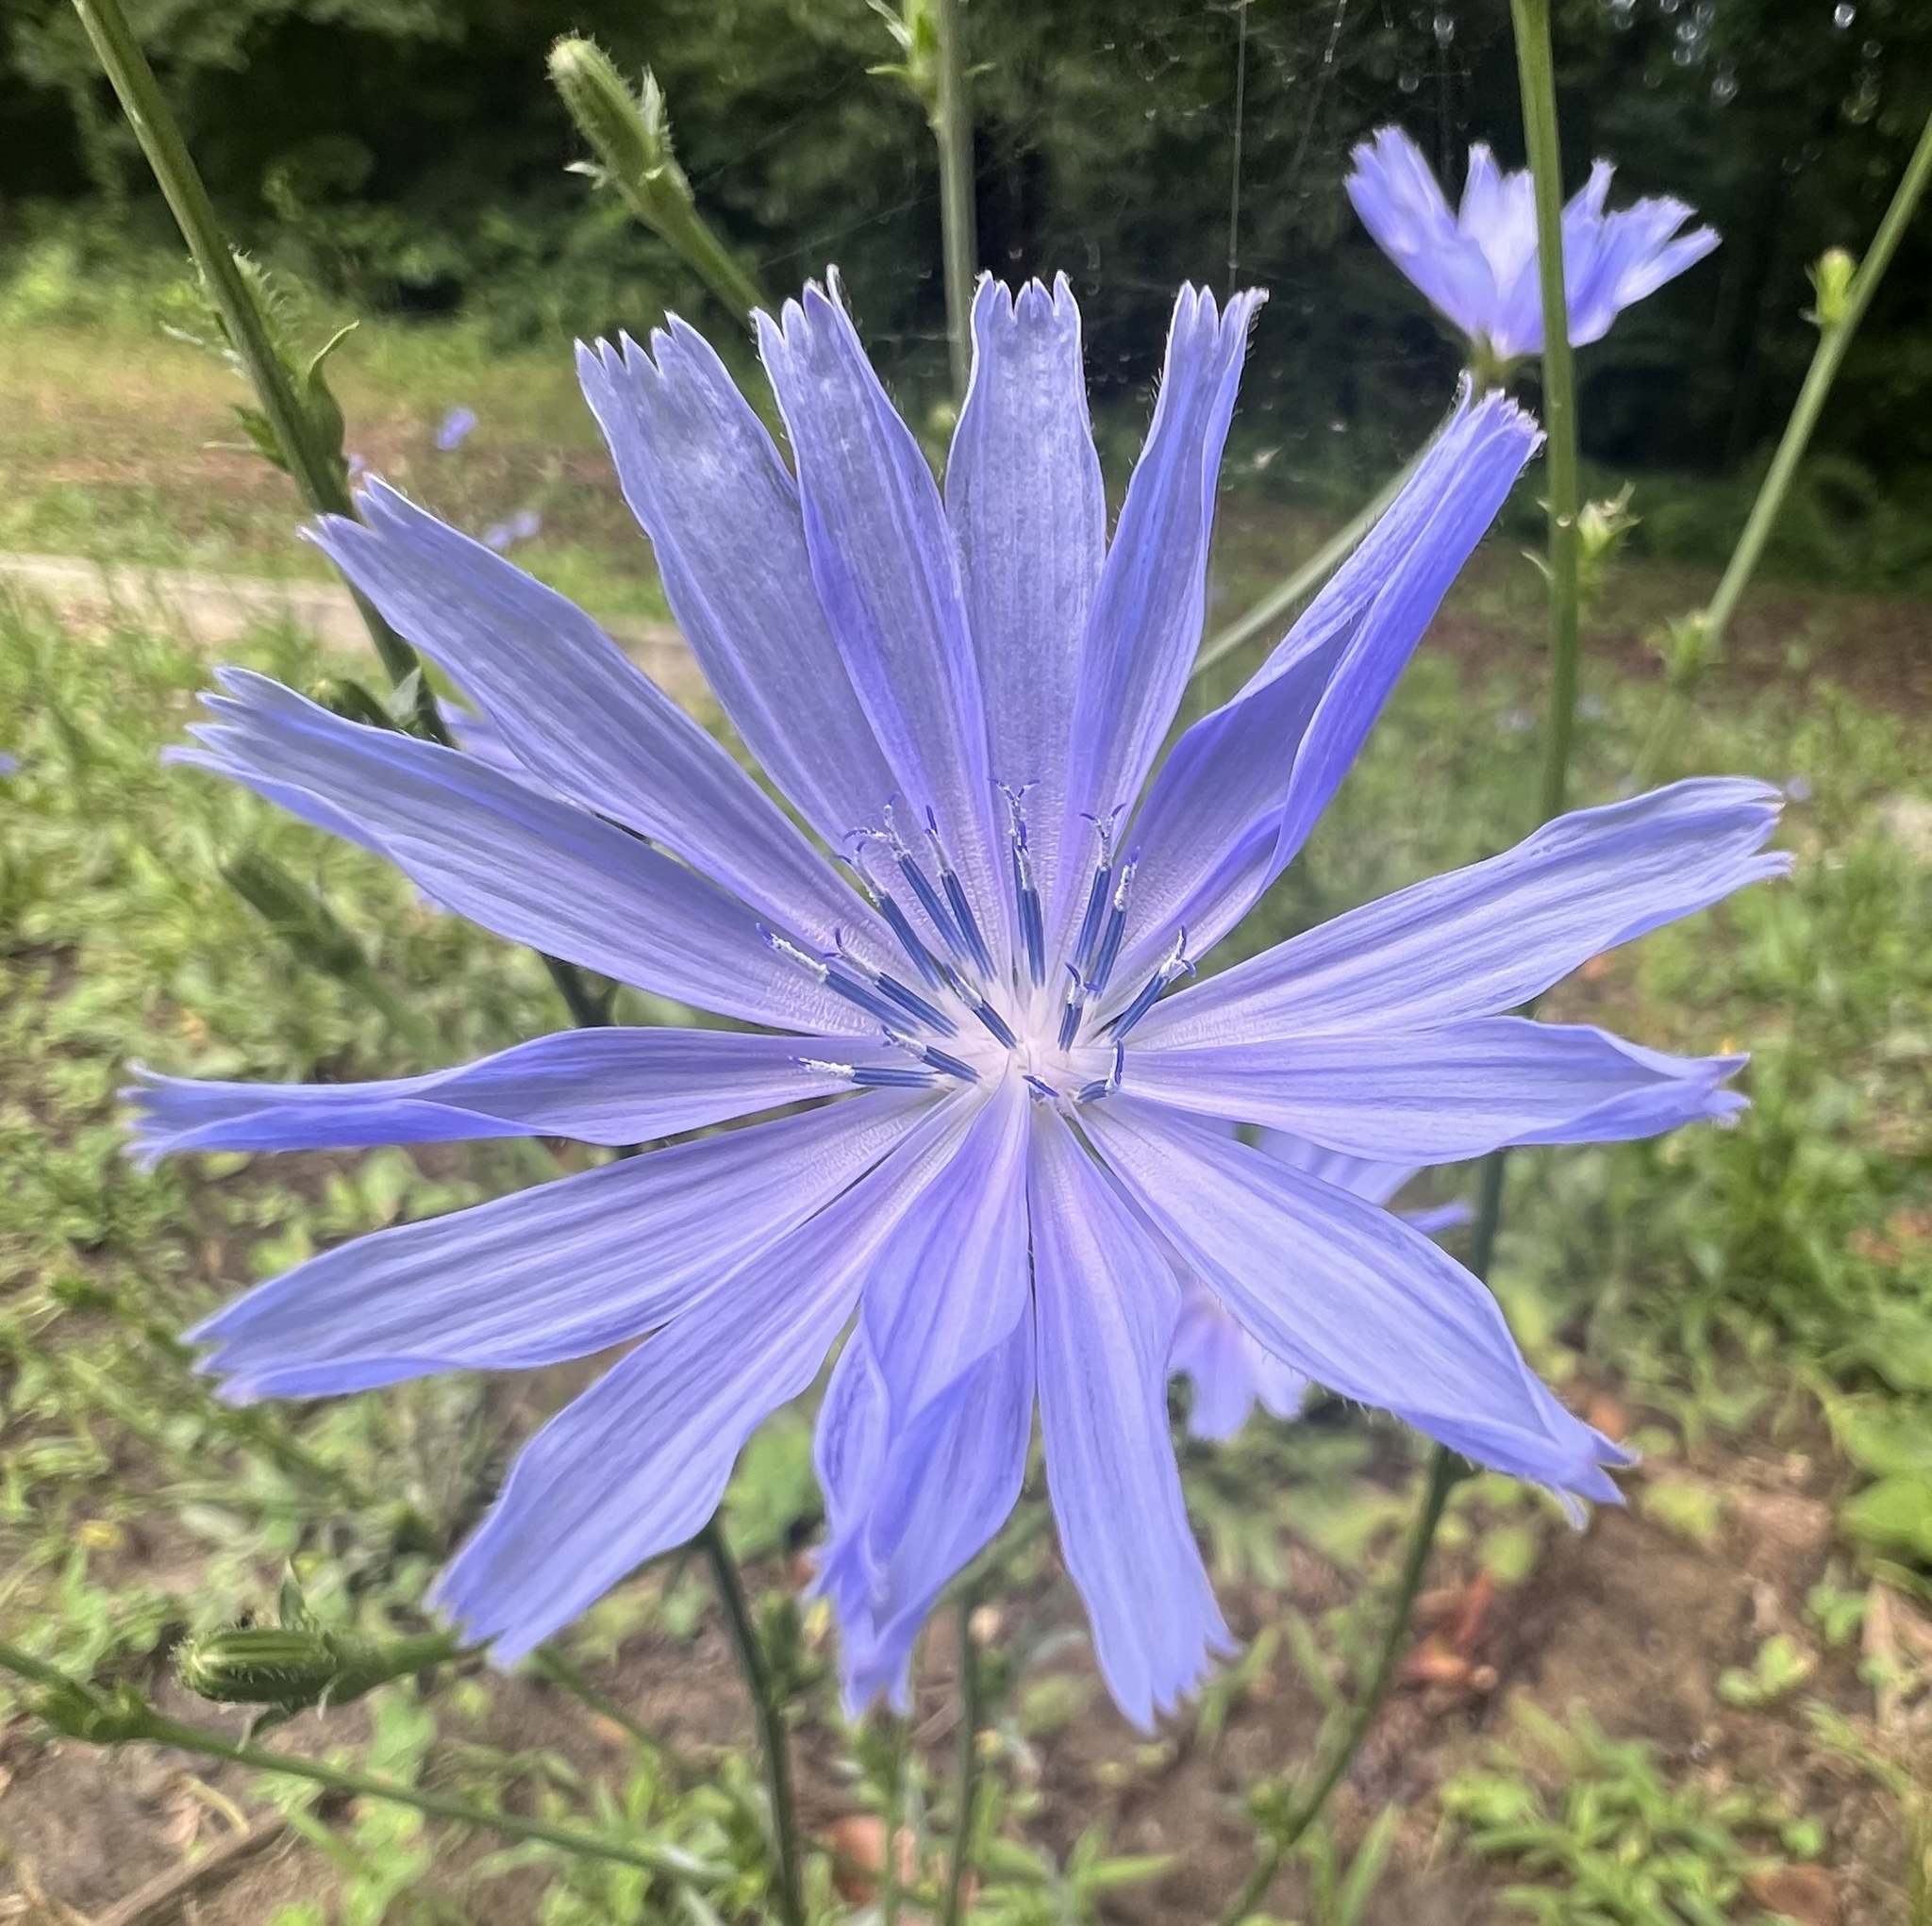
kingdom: Plantae
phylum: Tracheophyta
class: Magnoliopsida
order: Asterales
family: Asteraceae
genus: Cichorium
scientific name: Cichorium intybus
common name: Chicory
